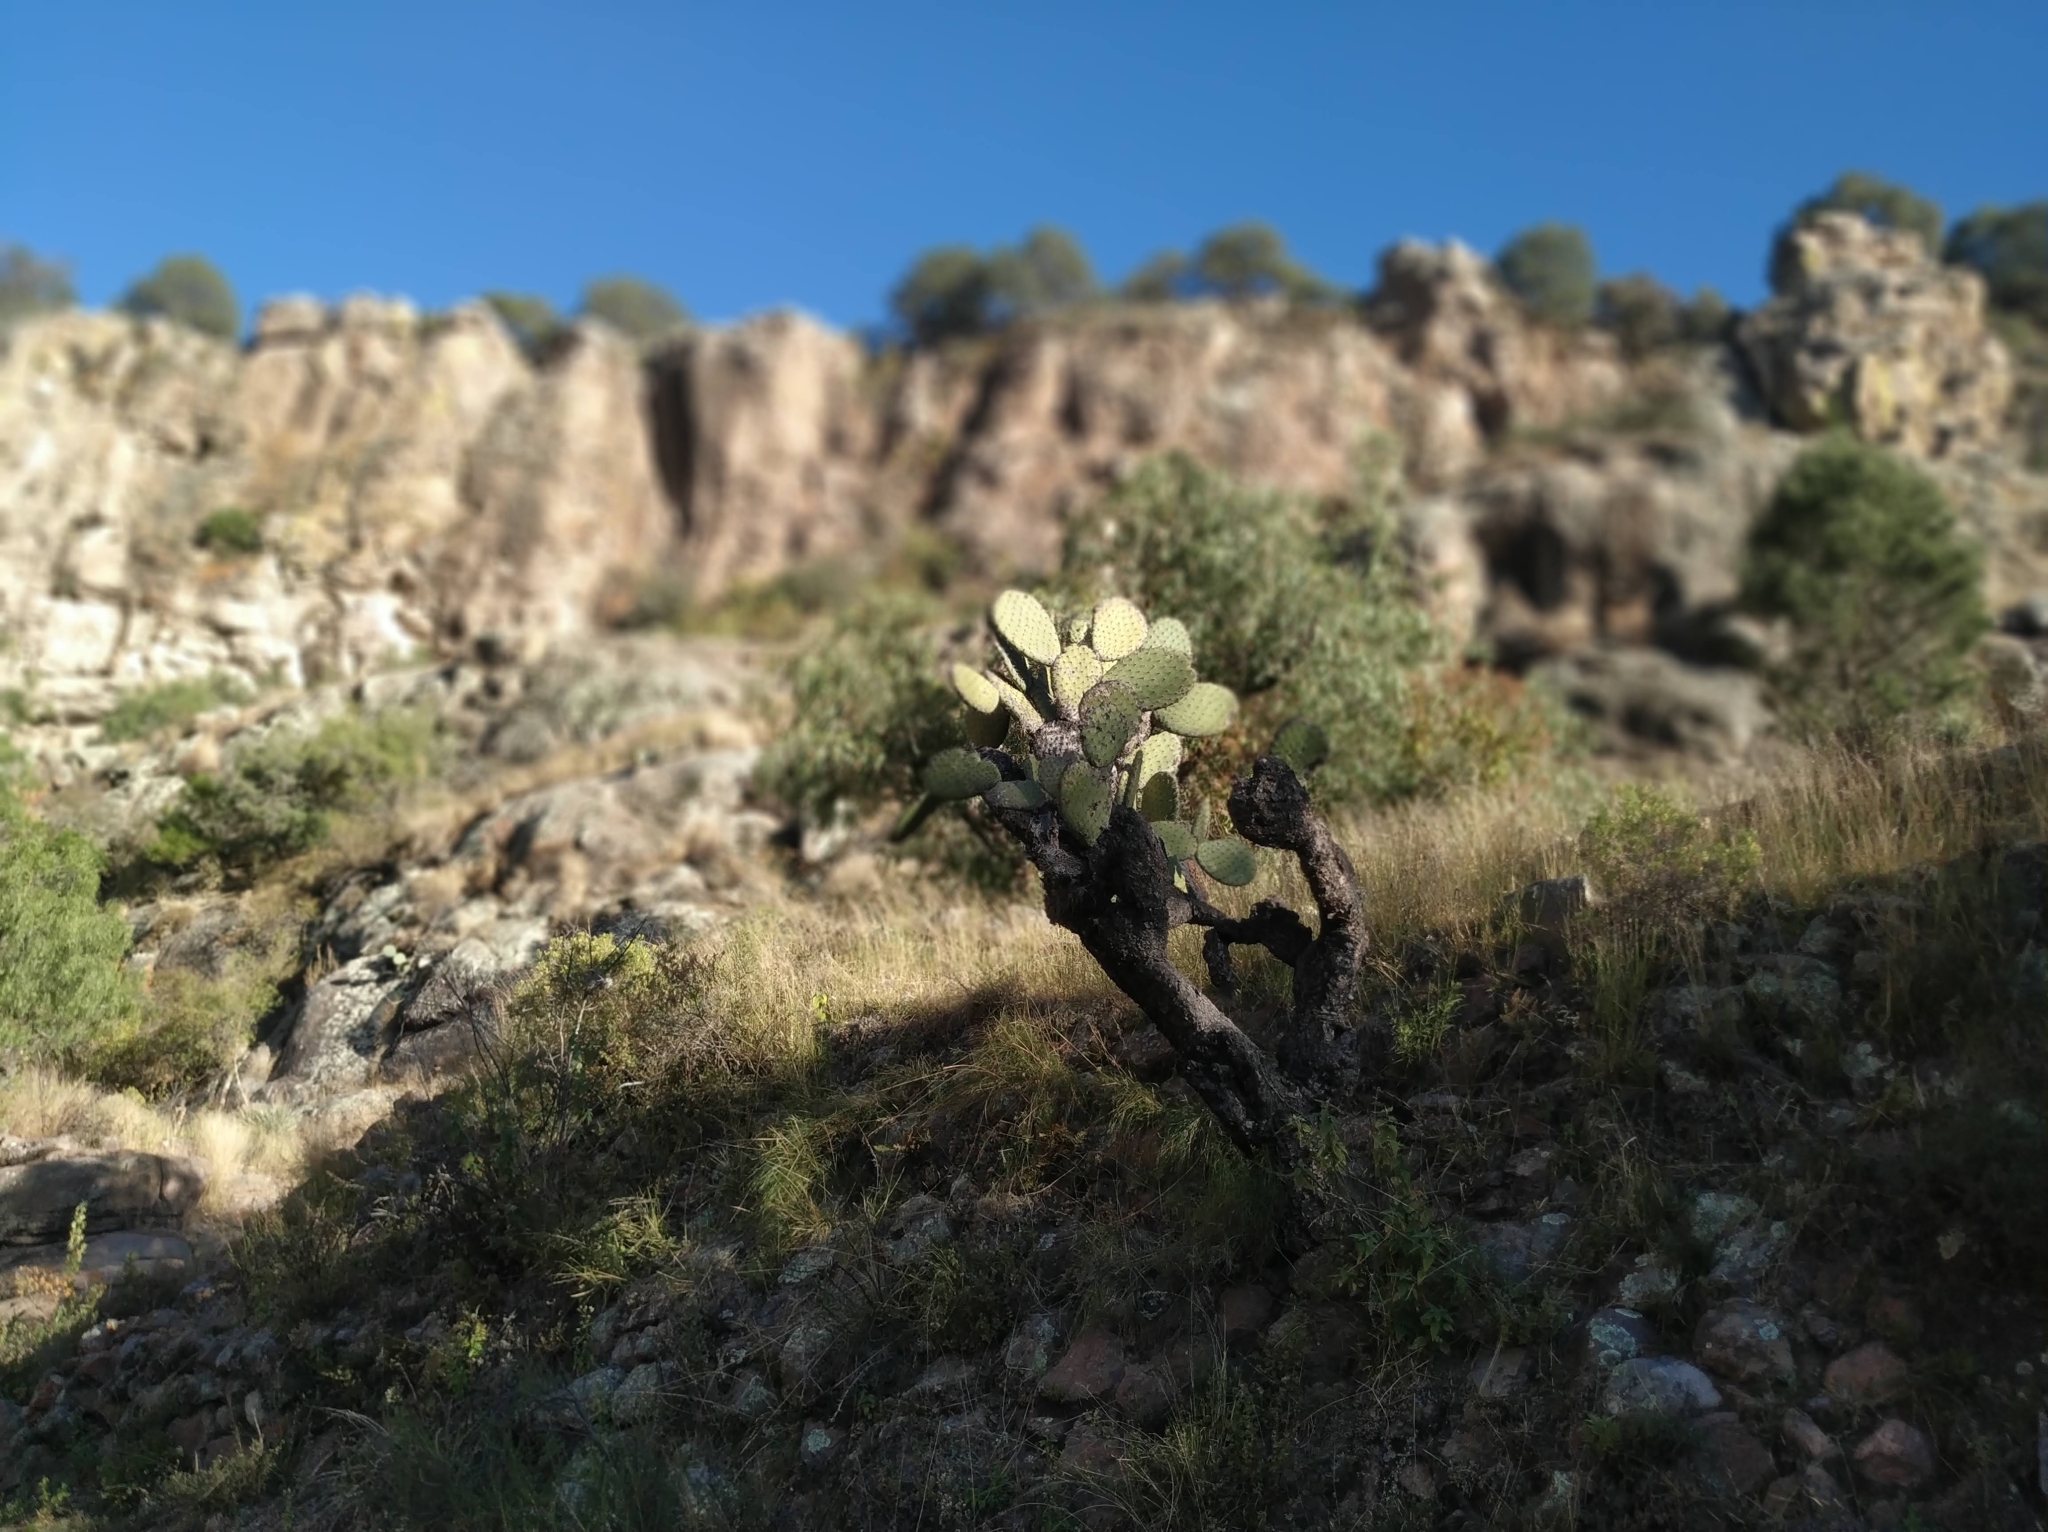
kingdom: Plantae
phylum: Tracheophyta
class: Magnoliopsida
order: Caryophyllales
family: Cactaceae
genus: Opuntia
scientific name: Opuntia hyptiacantha
